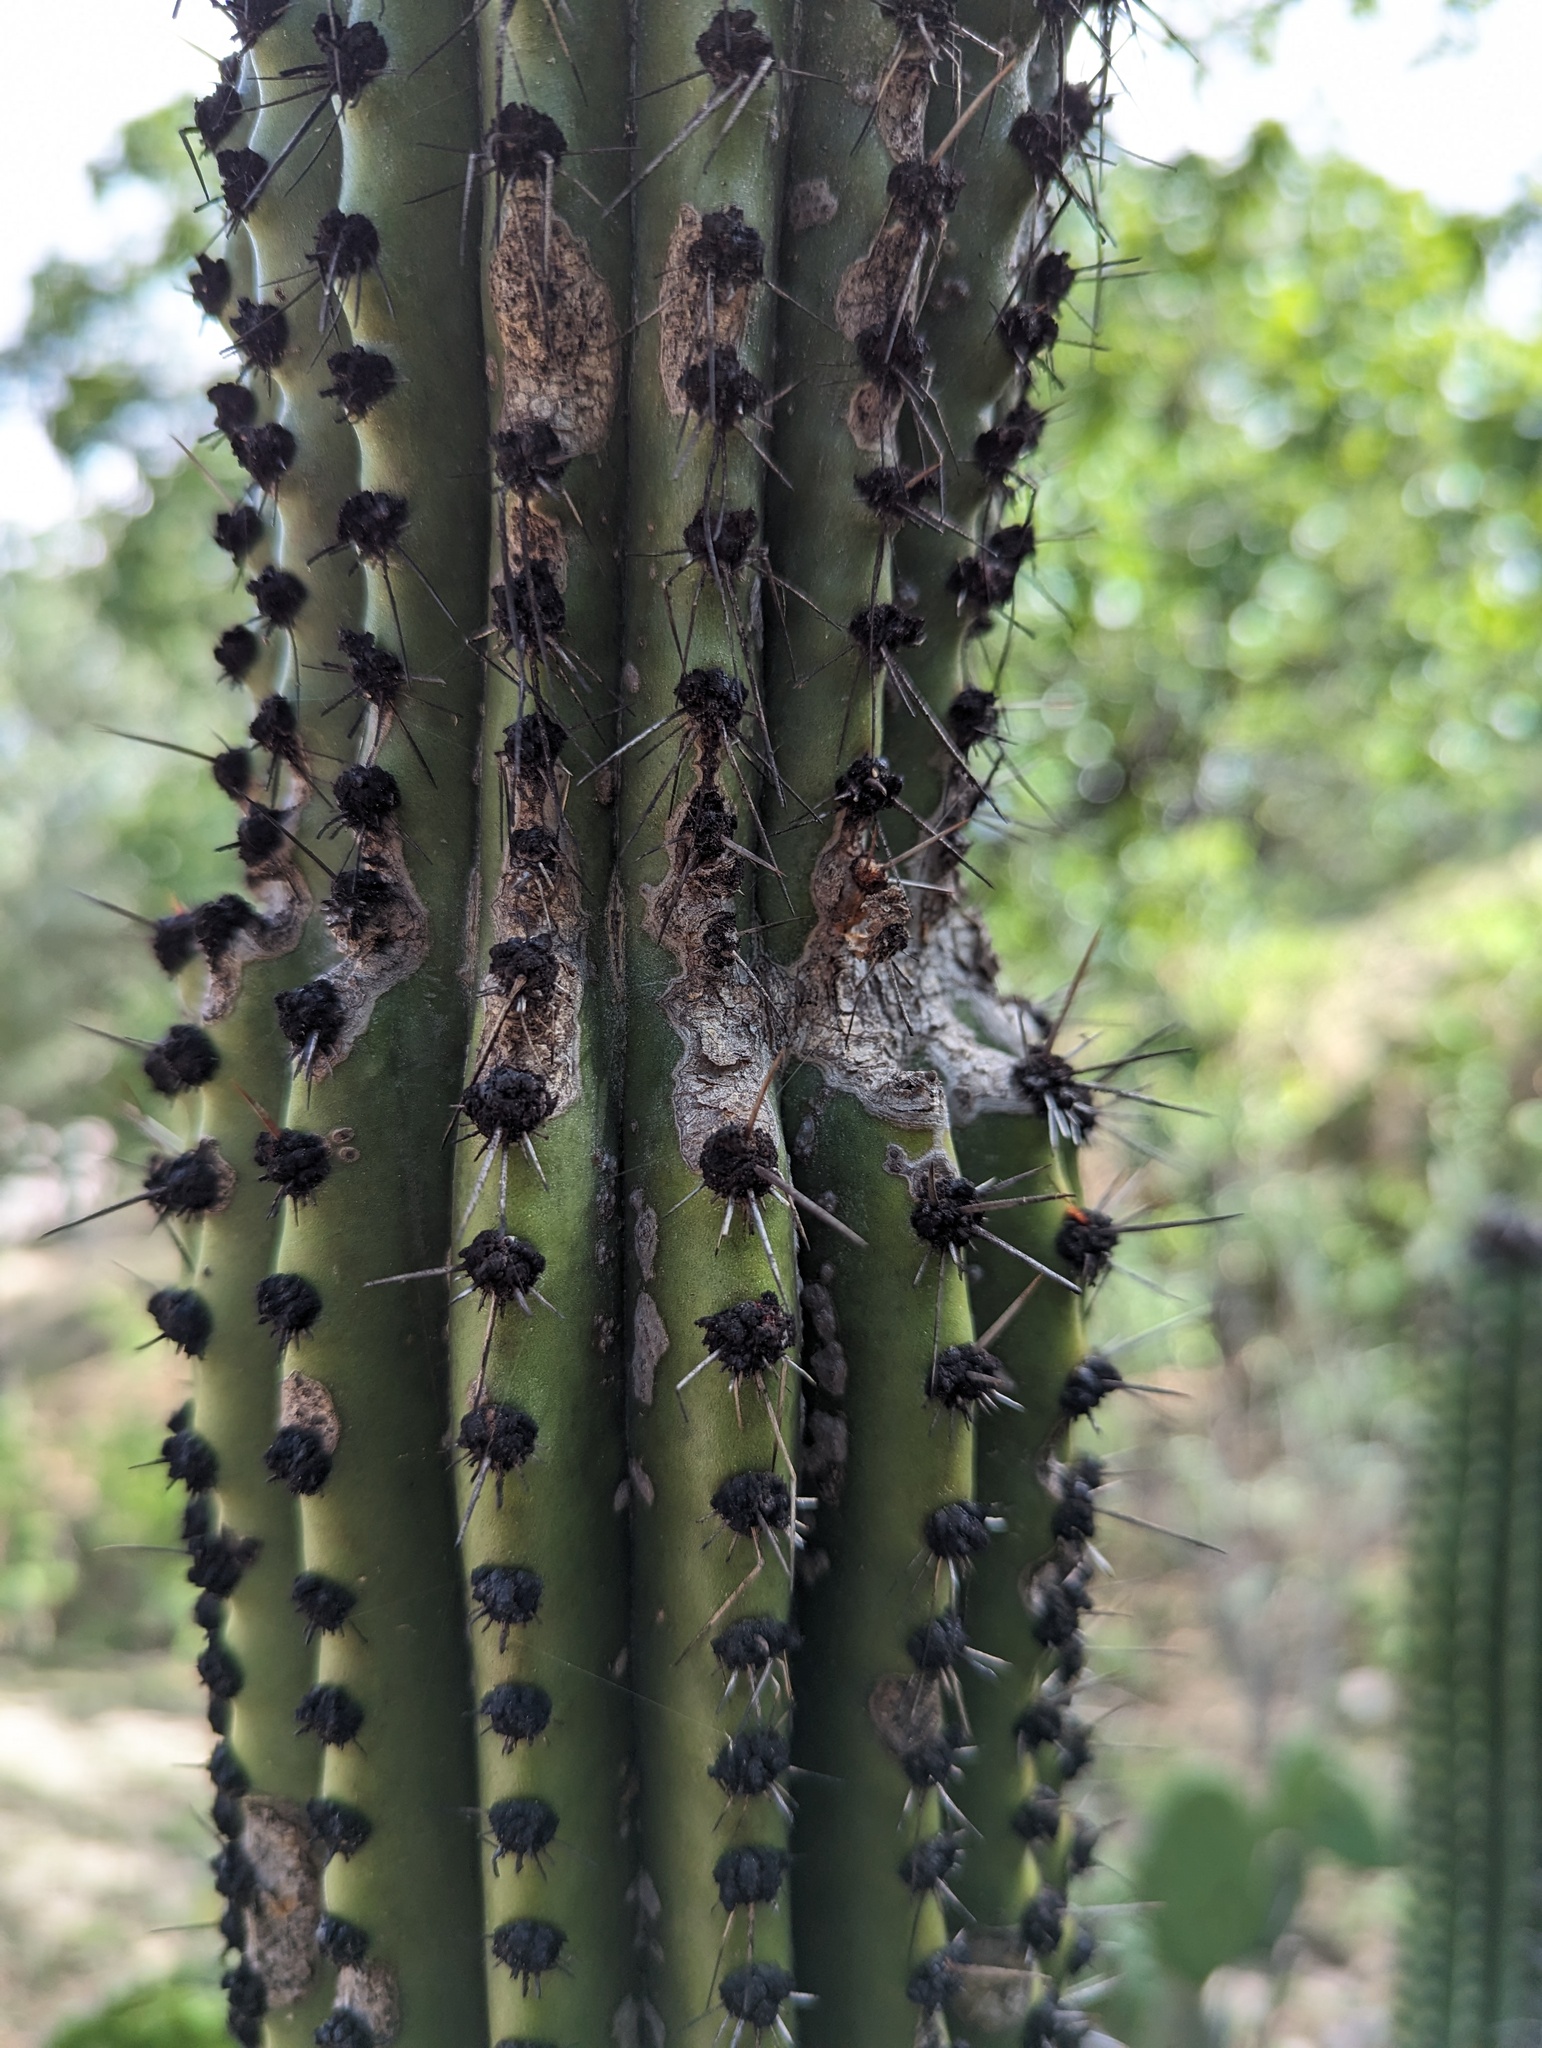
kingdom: Plantae
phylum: Tracheophyta
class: Magnoliopsida
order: Caryophyllales
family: Cactaceae
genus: Stenocereus
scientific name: Stenocereus thurberi
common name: Organ pipe cactus
